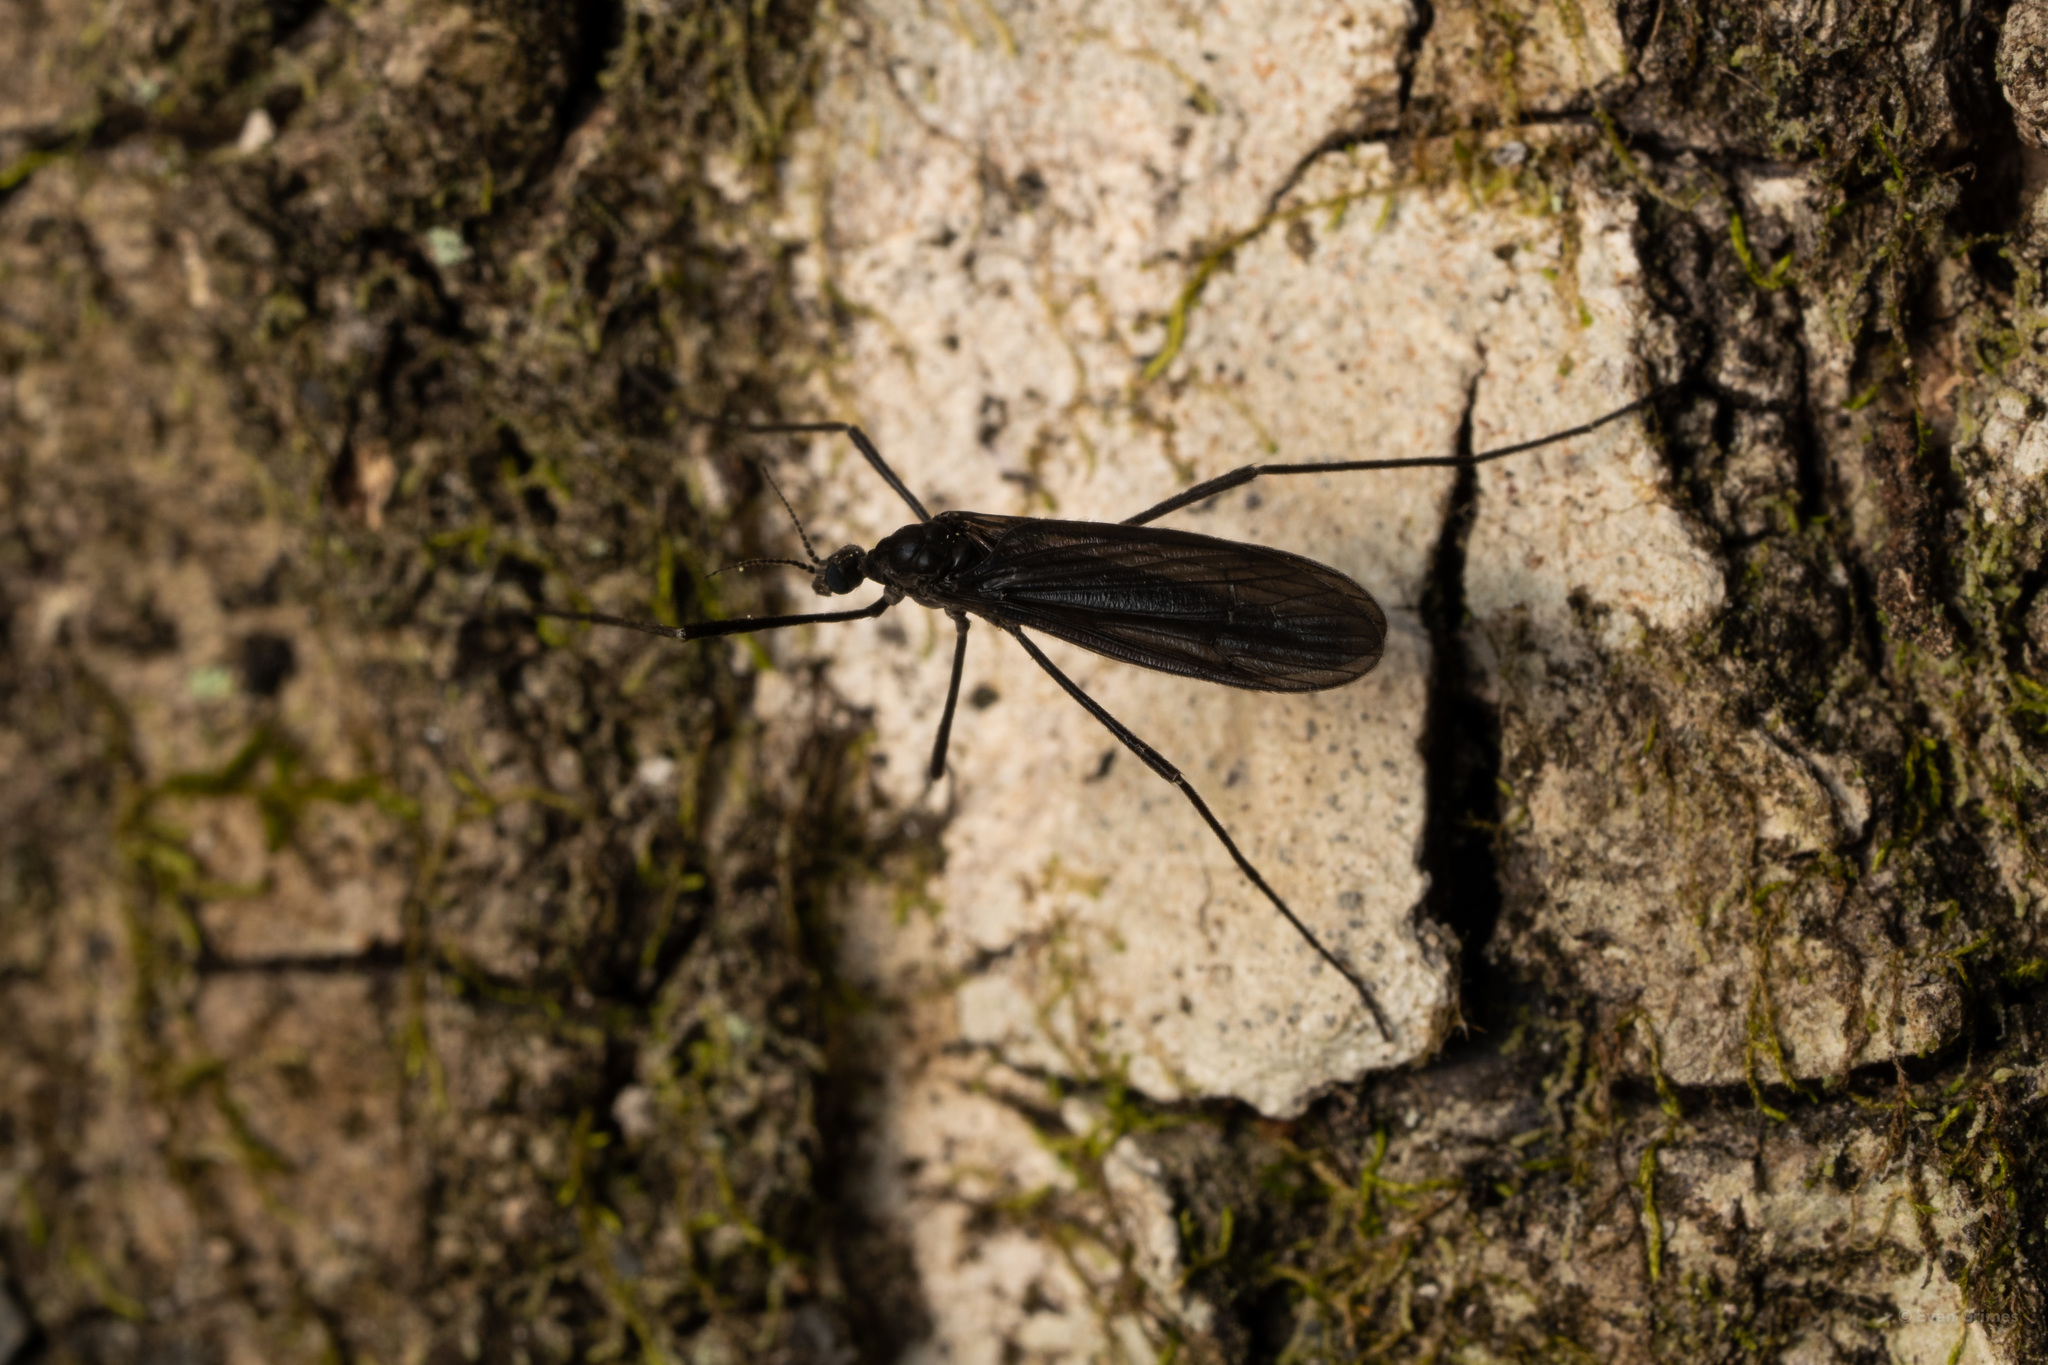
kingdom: Animalia
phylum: Arthropoda
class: Insecta
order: Diptera
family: Limoniidae
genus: Eugnophomyia
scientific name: Eugnophomyia luctuosa
